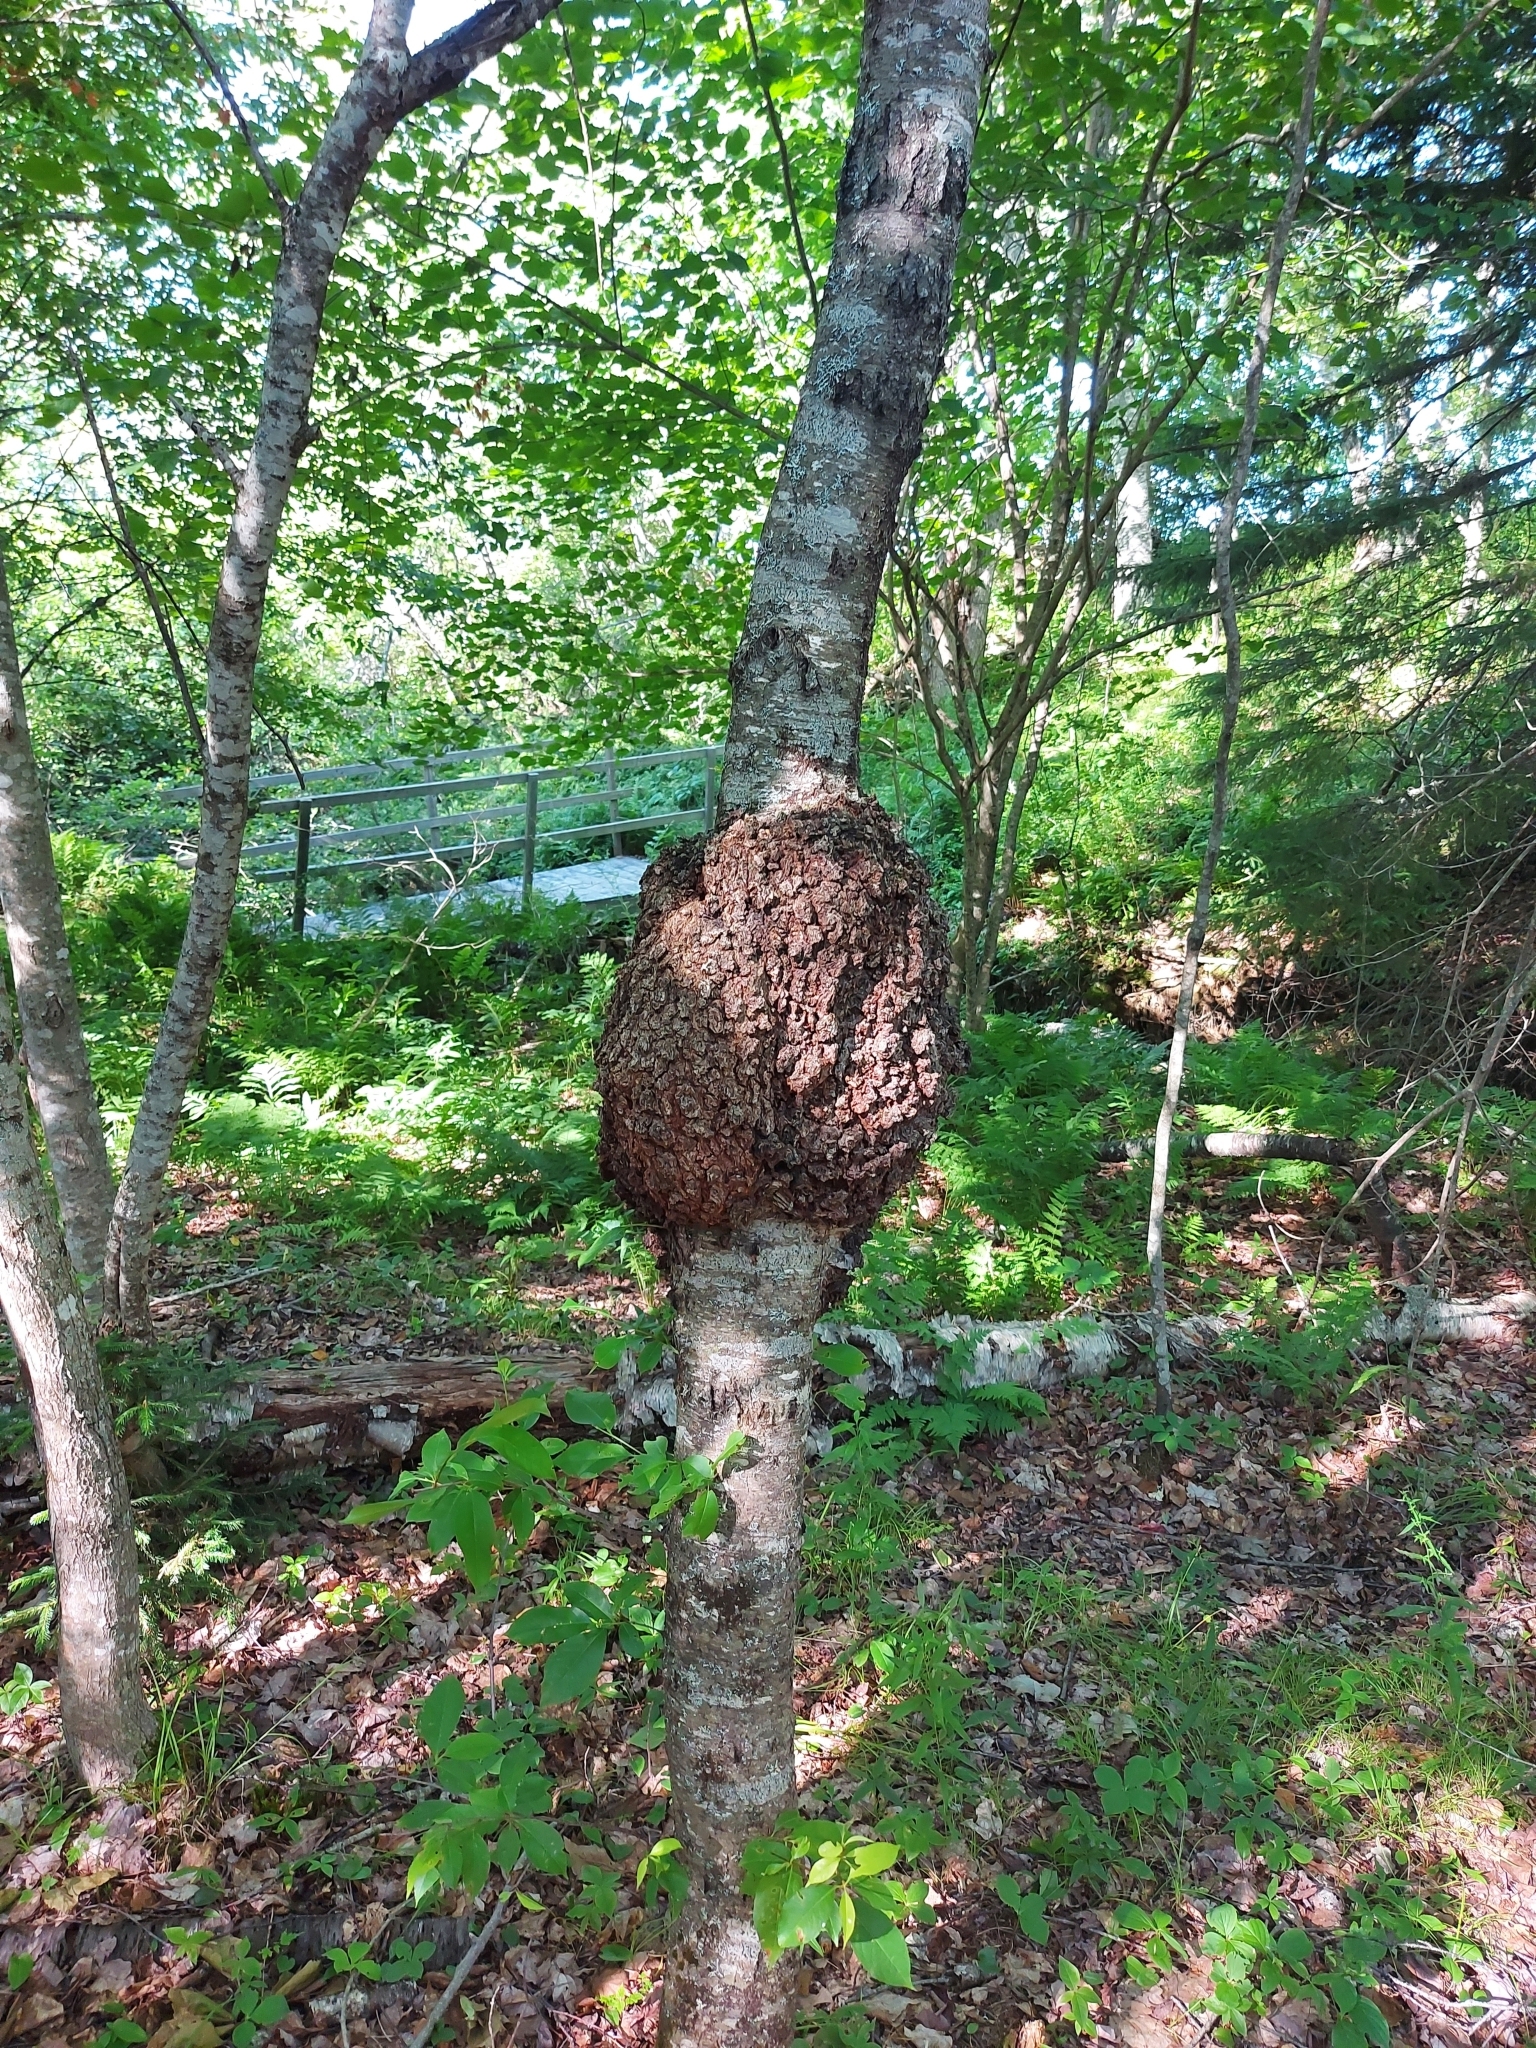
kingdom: Bacteria
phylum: Proteobacteria
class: Alphaproteobacteria
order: Rhizobiales
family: Rhizobiaceae
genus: Rhizobium
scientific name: Rhizobium Agrobacterium radiobacter
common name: Bacterial crown gall
